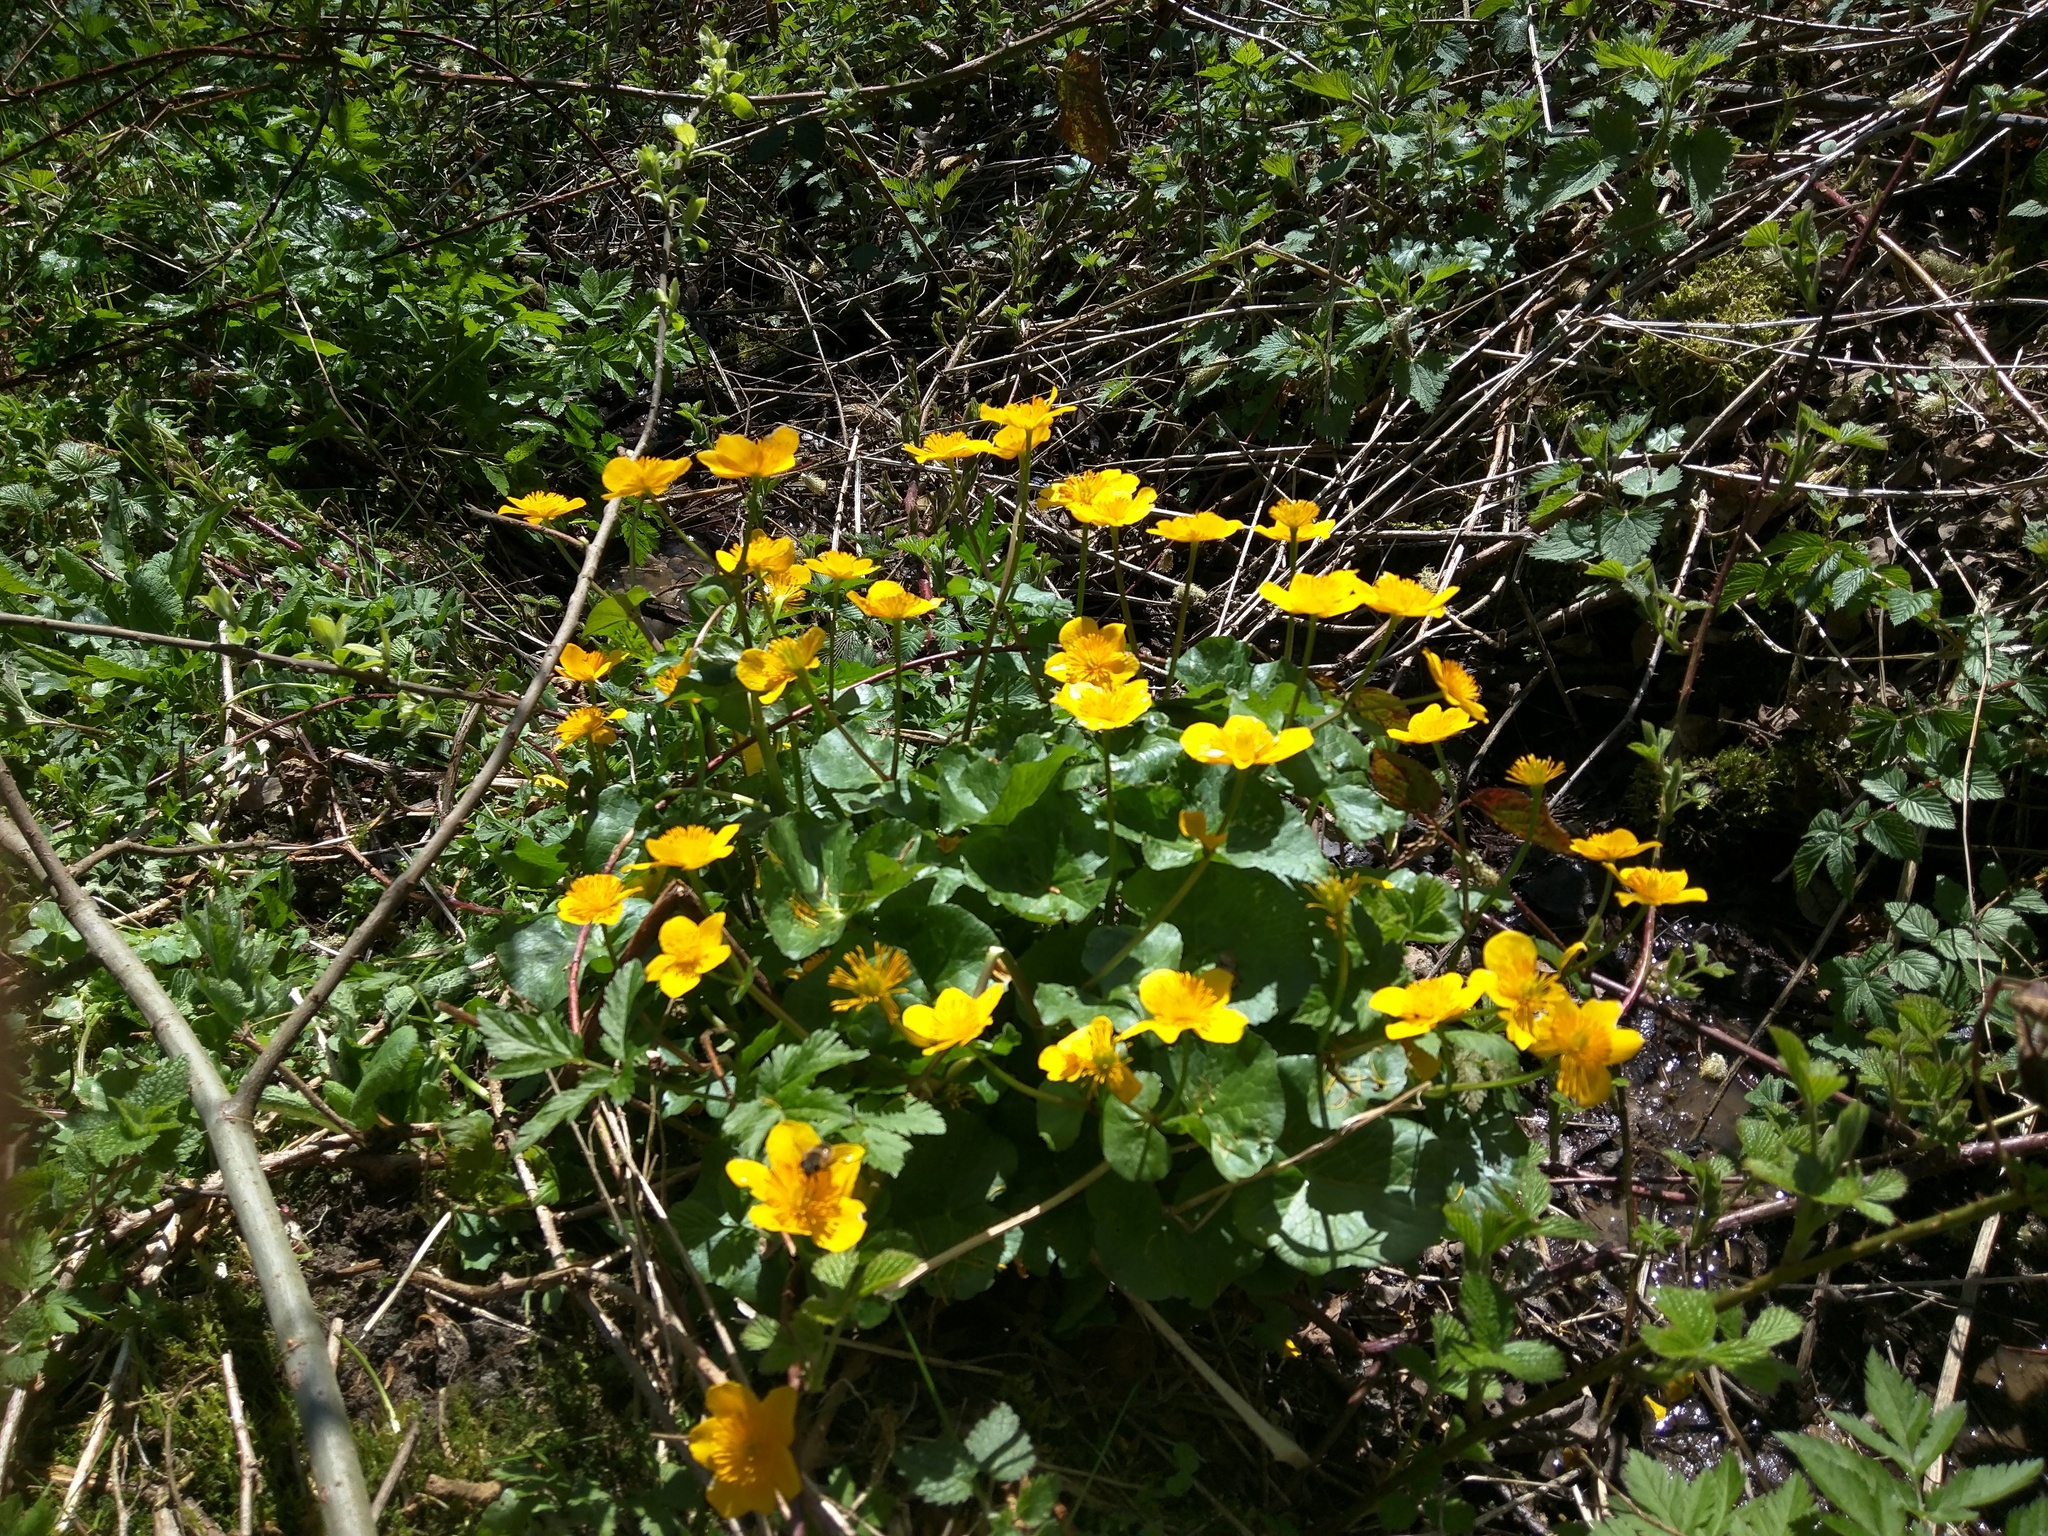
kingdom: Plantae
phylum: Tracheophyta
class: Magnoliopsida
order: Ranunculales
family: Ranunculaceae
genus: Caltha
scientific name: Caltha palustris
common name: Marsh marigold
